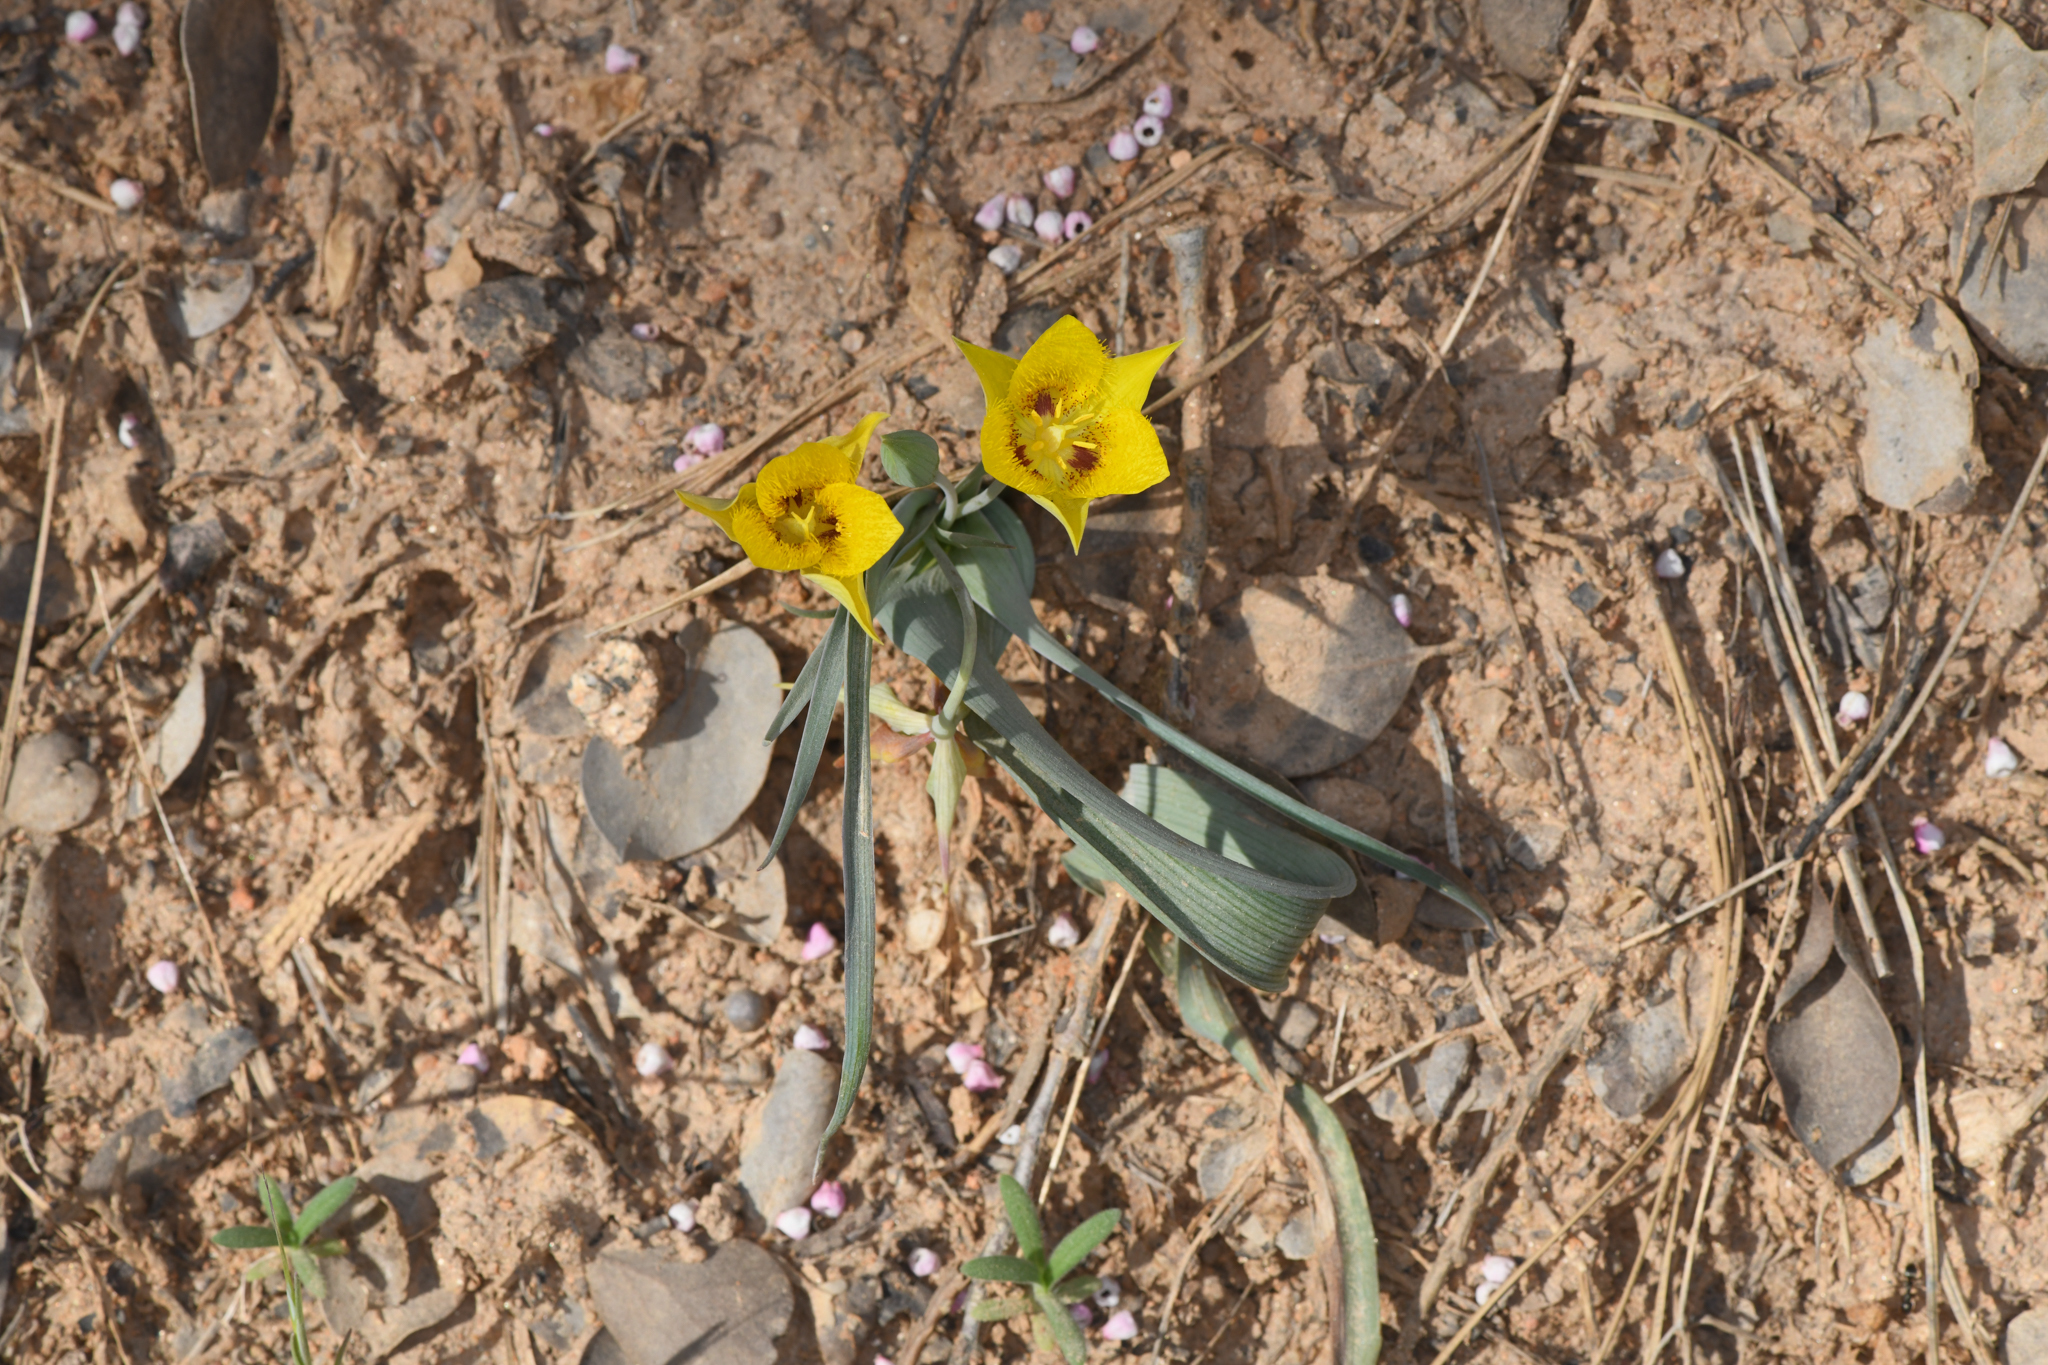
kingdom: Plantae
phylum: Tracheophyta
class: Liliopsida
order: Liliales
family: Liliaceae
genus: Calochortus
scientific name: Calochortus monophyllus
